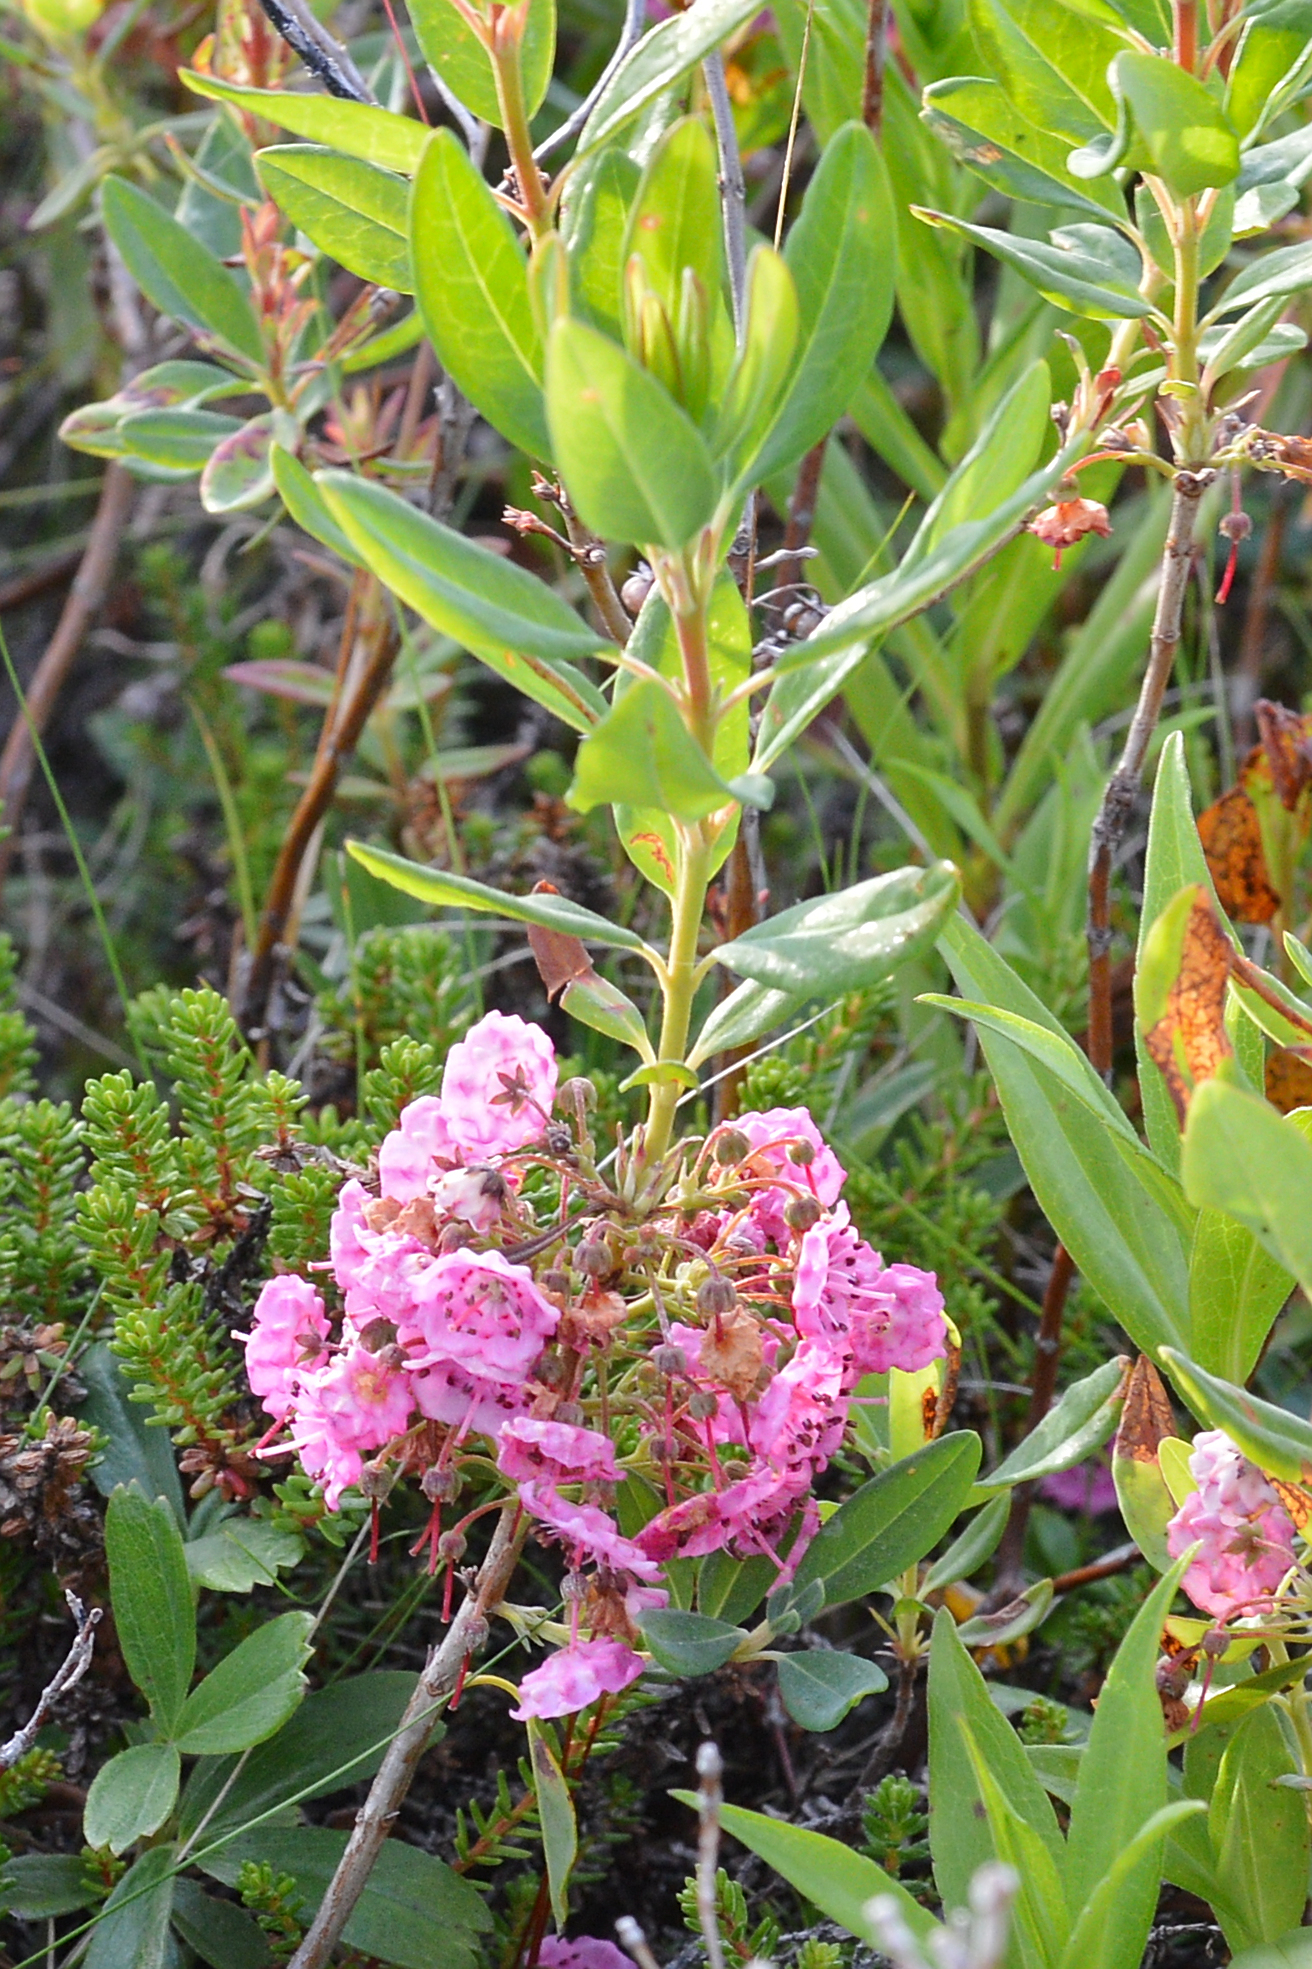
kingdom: Plantae
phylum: Tracheophyta
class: Magnoliopsida
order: Ericales
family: Ericaceae
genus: Kalmia
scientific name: Kalmia angustifolia
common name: Sheep-laurel
